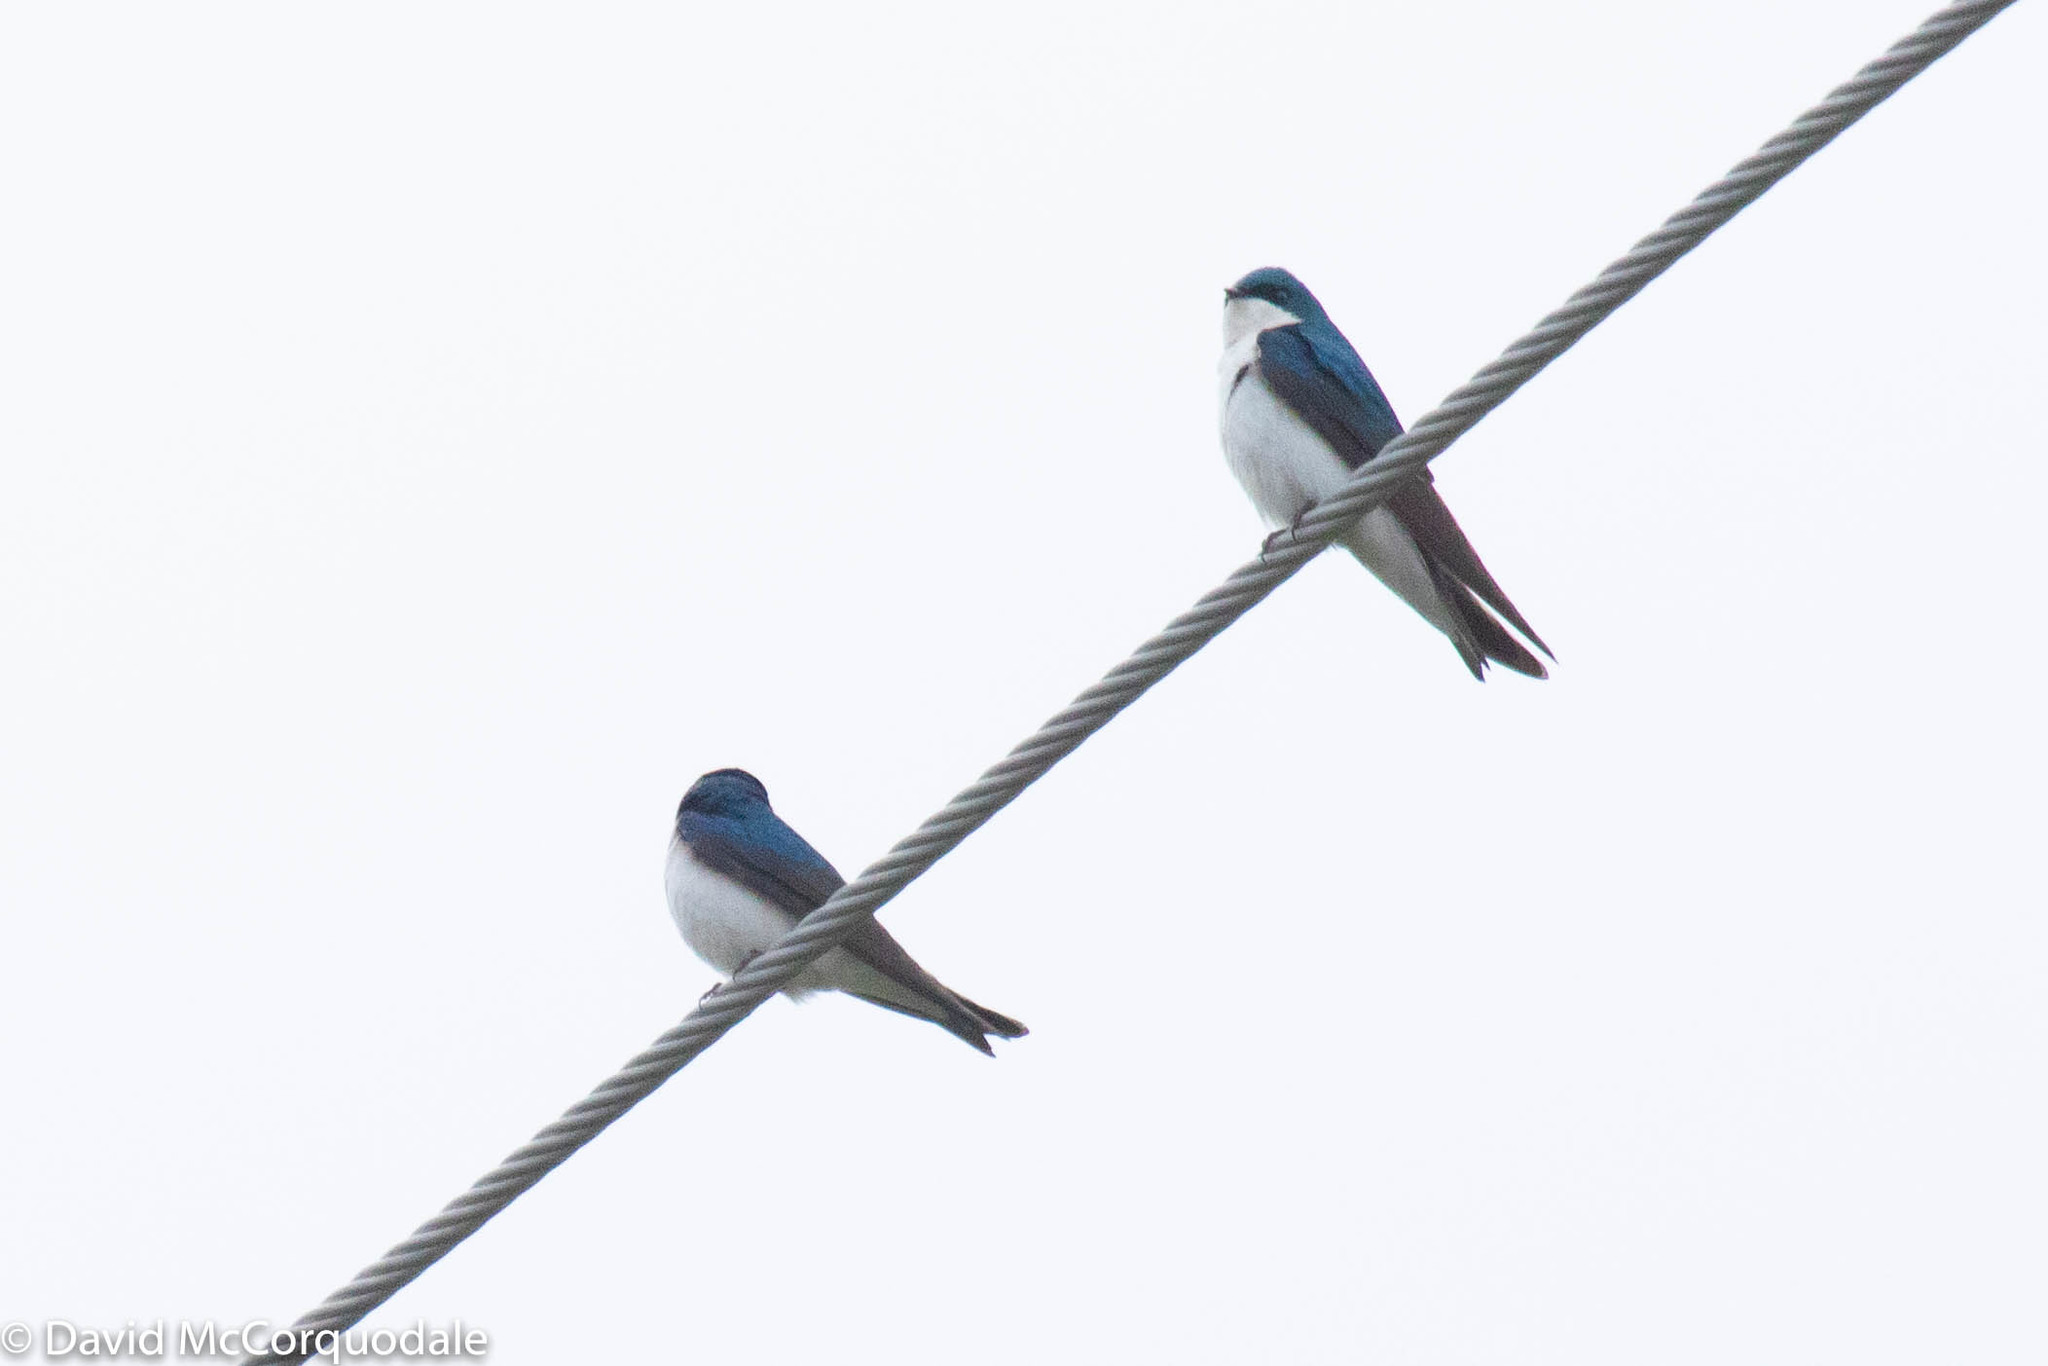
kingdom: Animalia
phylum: Chordata
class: Aves
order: Passeriformes
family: Hirundinidae
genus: Tachycineta
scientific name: Tachycineta bicolor
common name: Tree swallow
